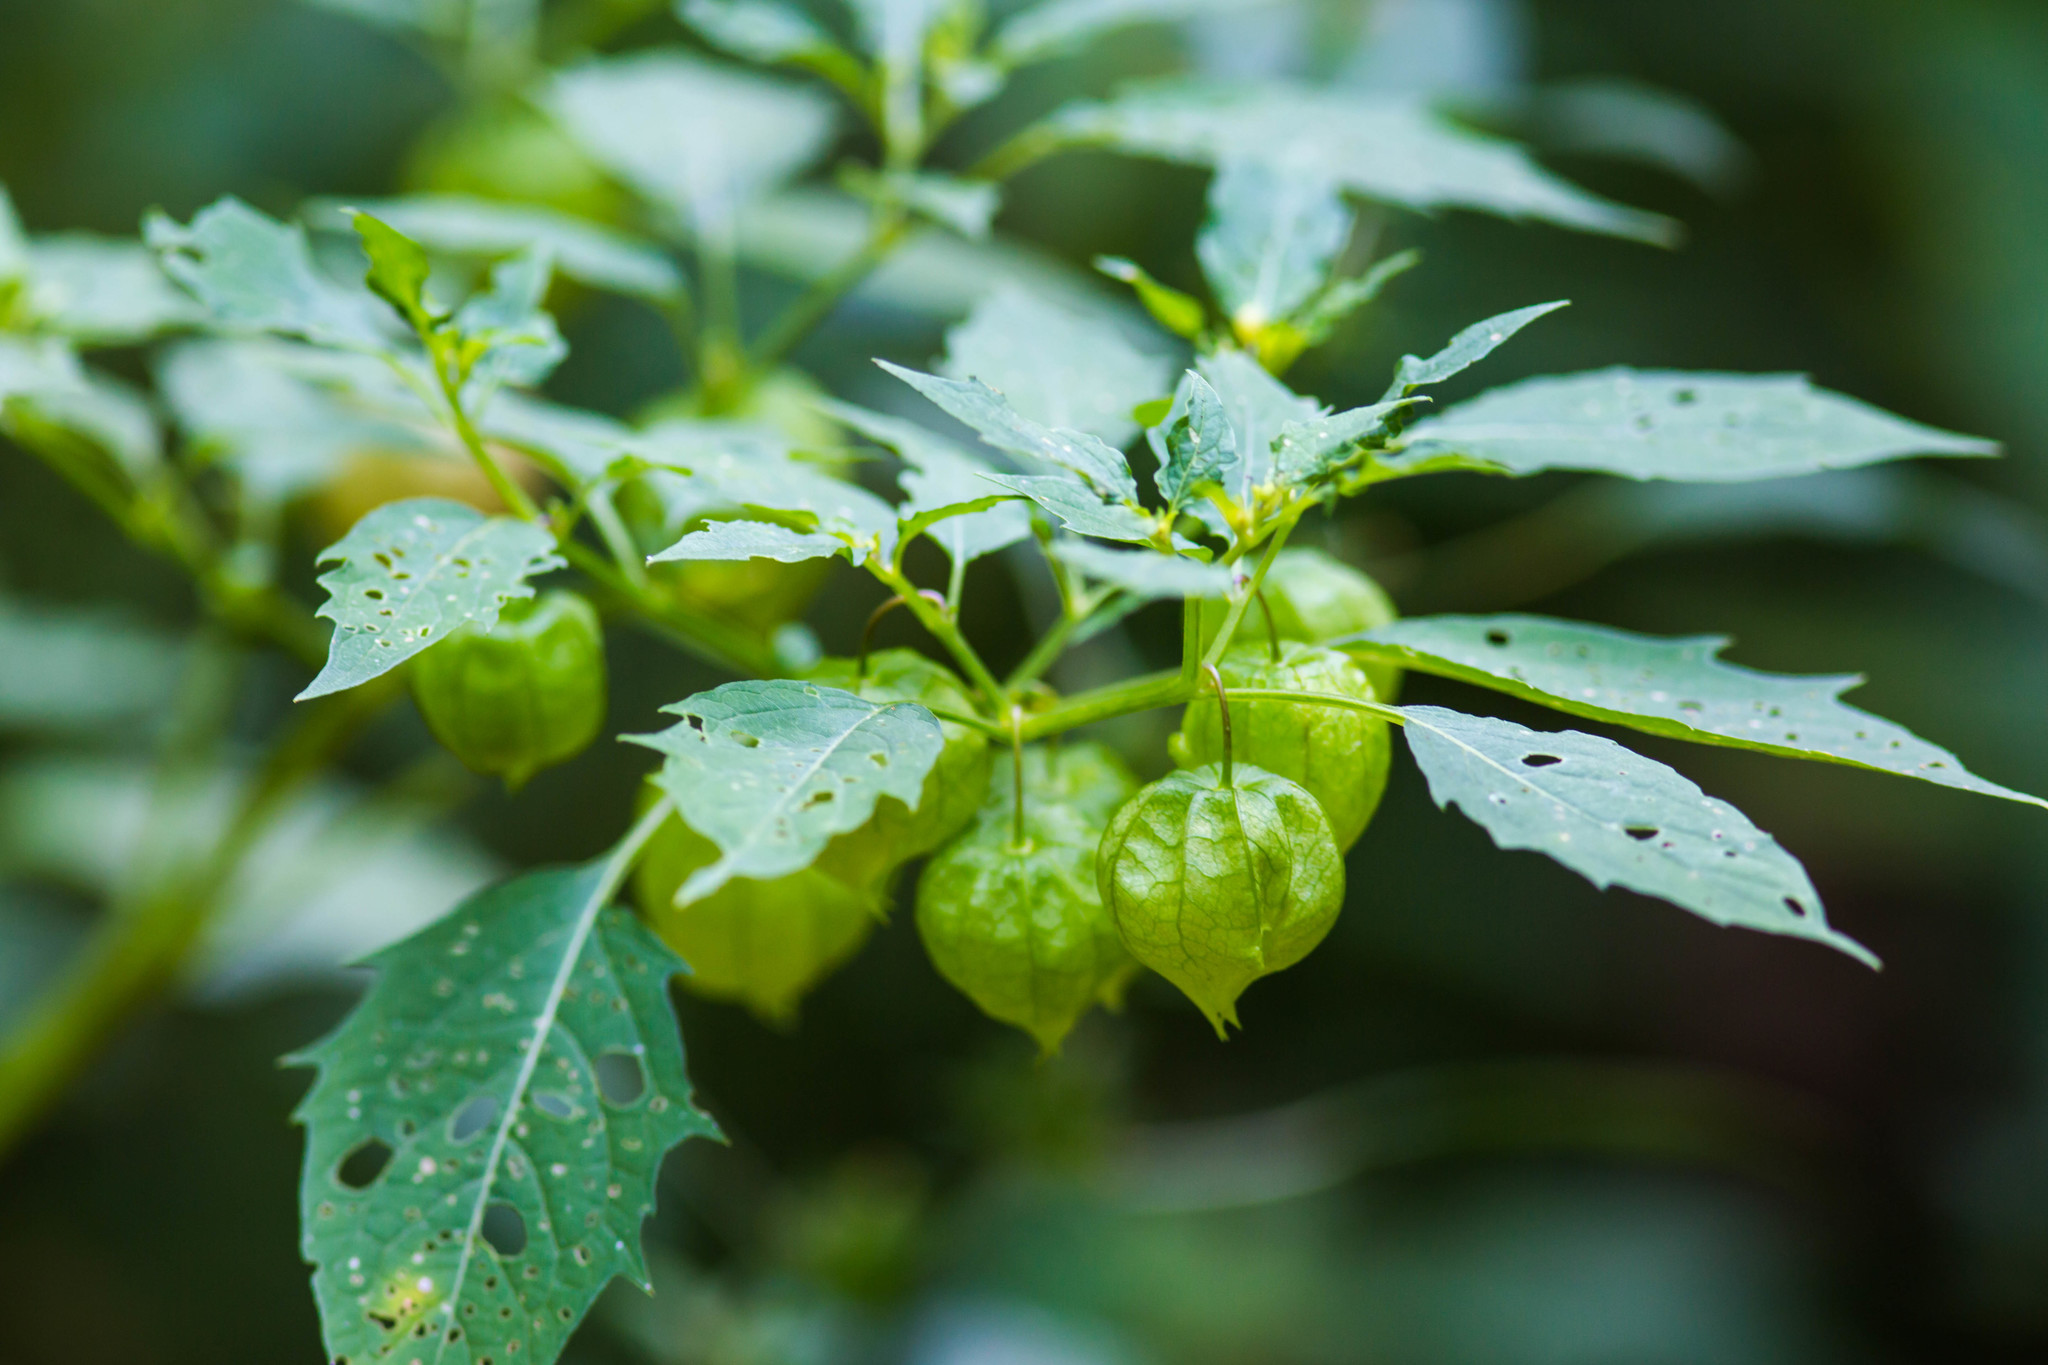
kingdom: Plantae
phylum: Tracheophyta
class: Magnoliopsida
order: Solanales
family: Solanaceae
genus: Physalis
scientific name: Physalis angulata
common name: Angular winter-cherry
